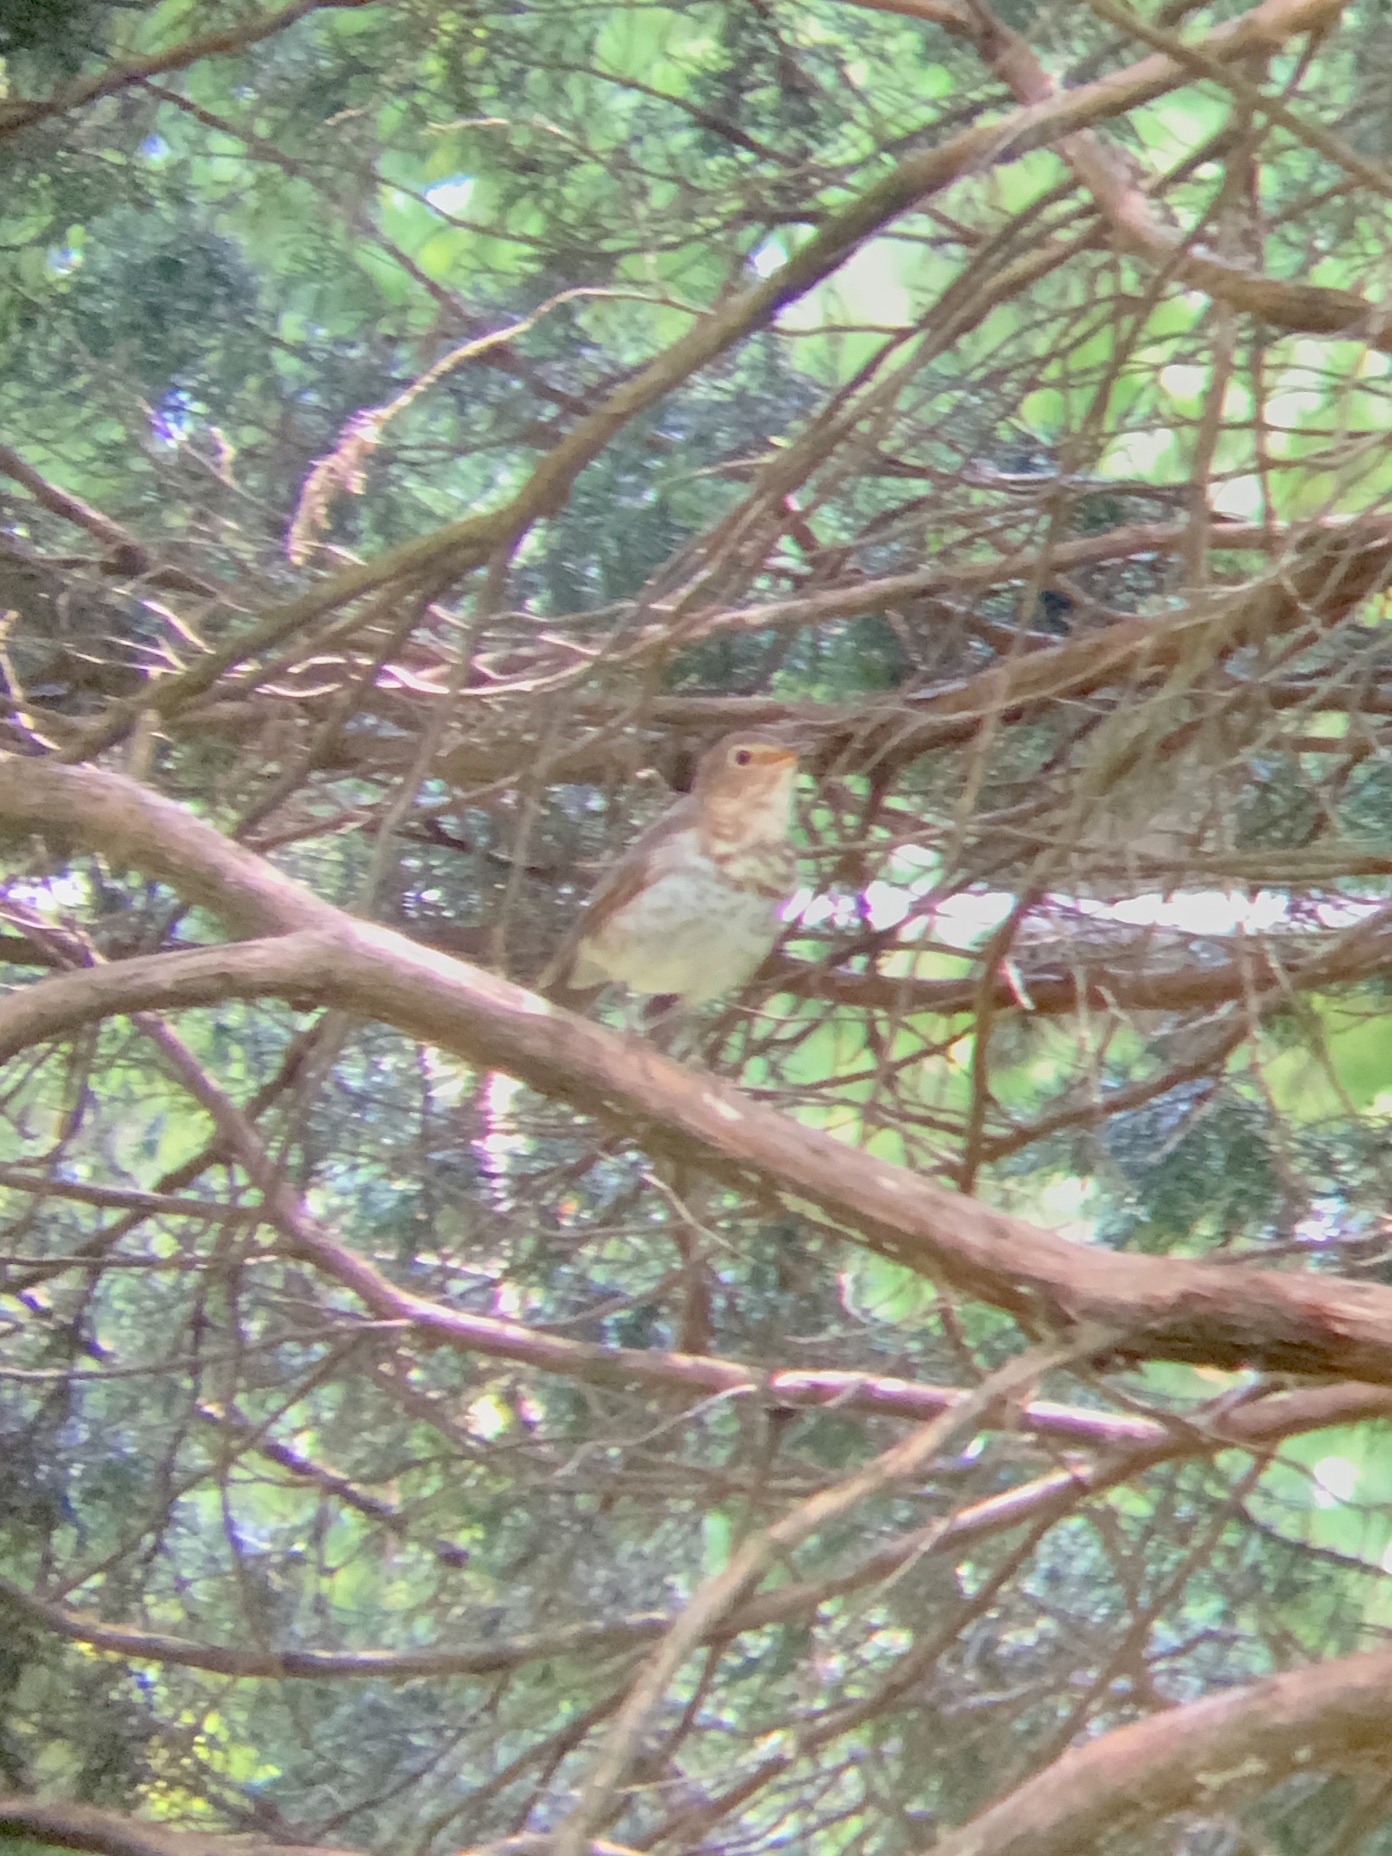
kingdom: Animalia
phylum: Chordata
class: Aves
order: Passeriformes
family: Turdidae
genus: Catharus
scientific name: Catharus ustulatus
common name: Swainson's thrush
